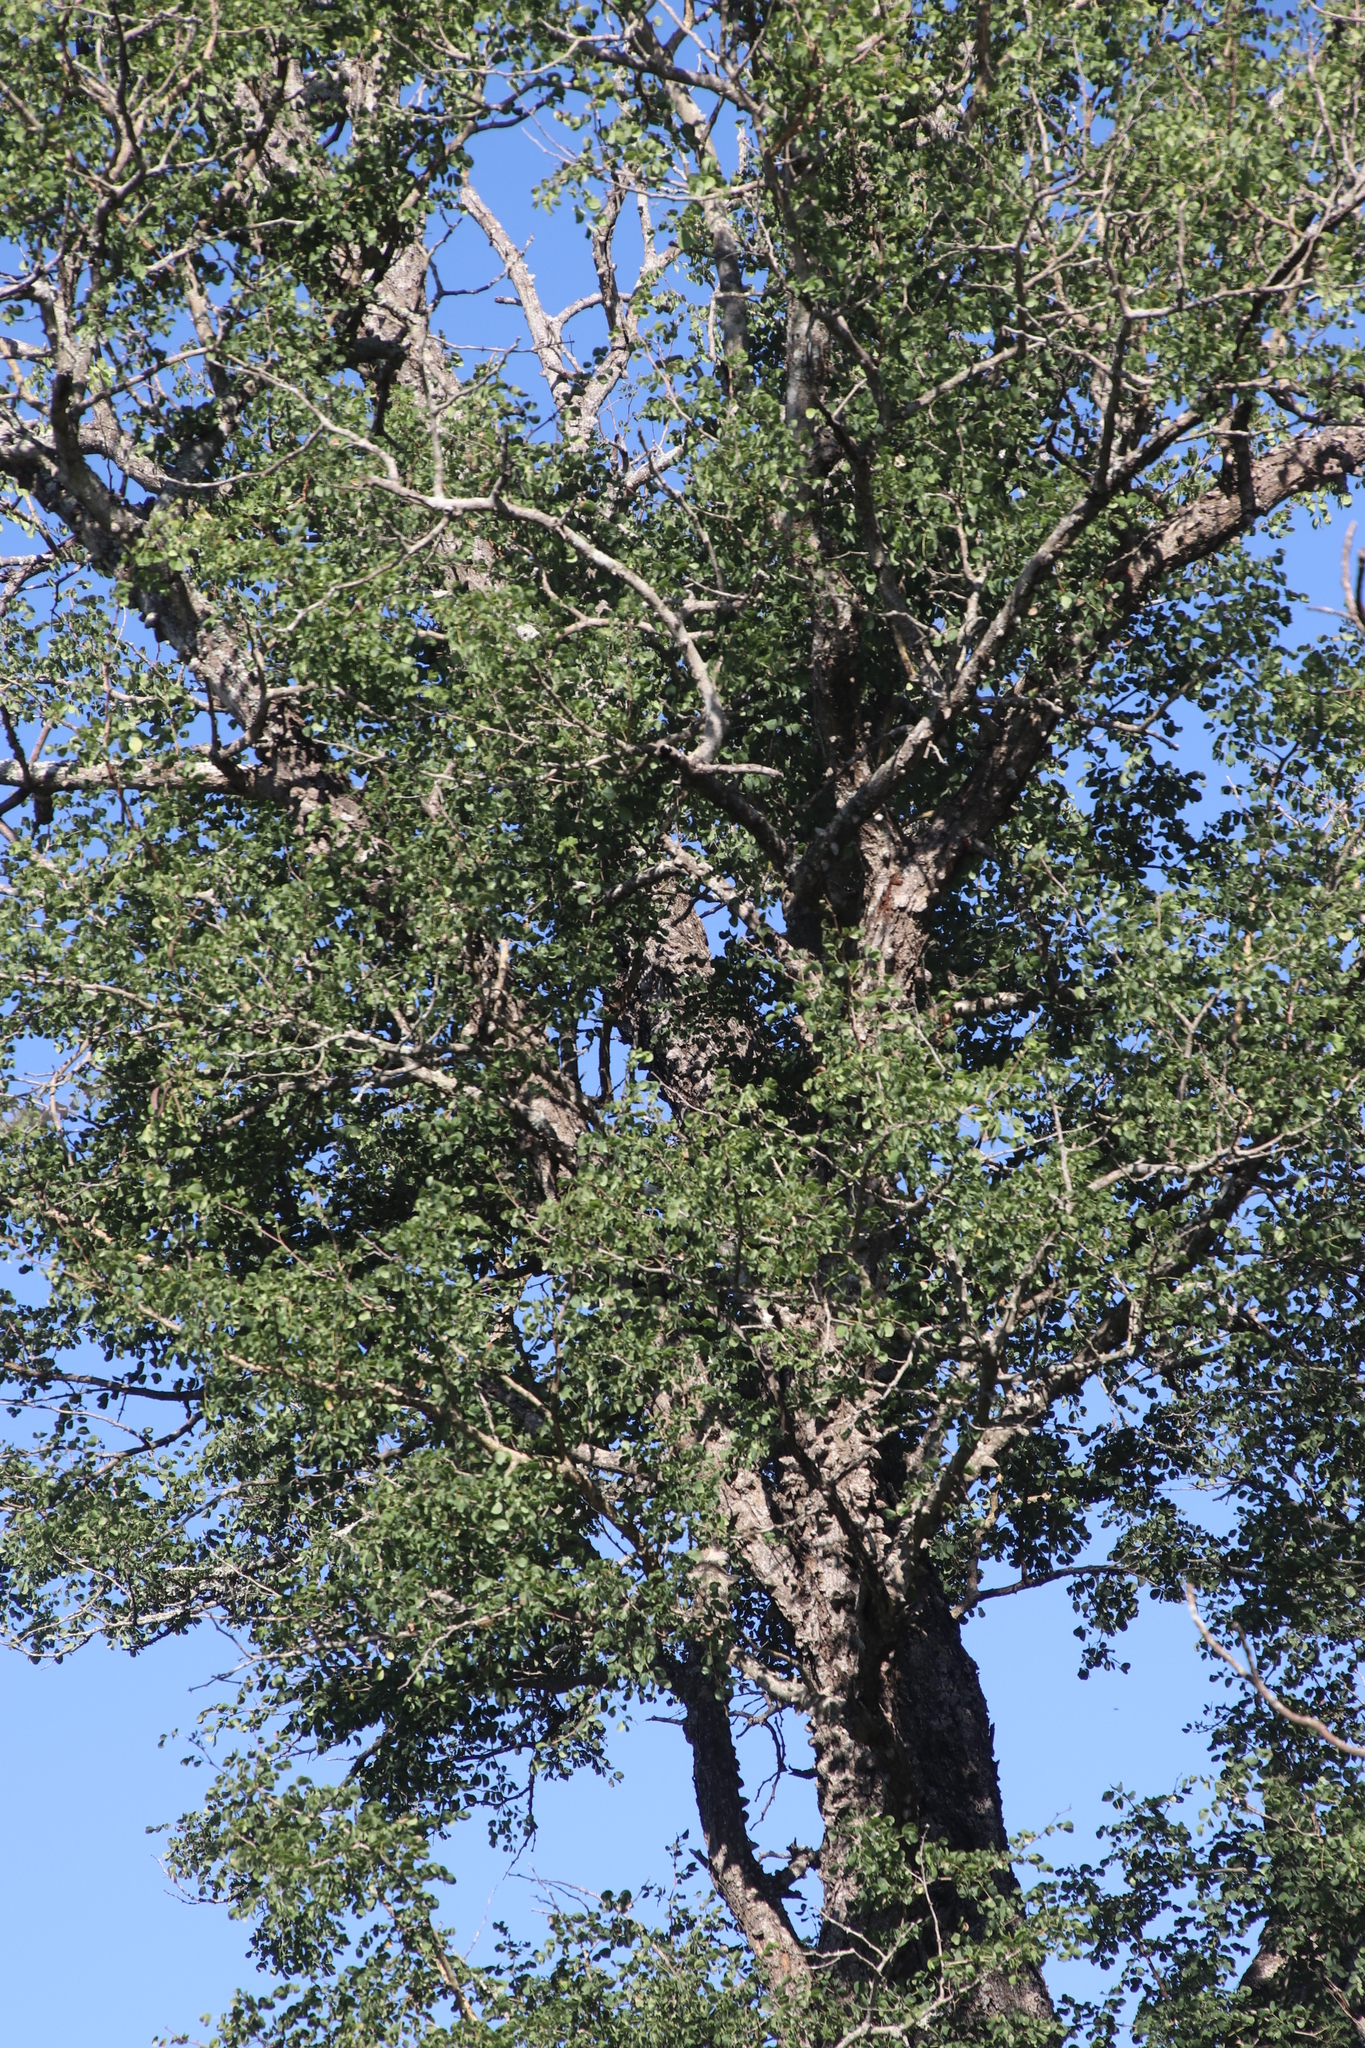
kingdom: Plantae
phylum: Tracheophyta
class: Magnoliopsida
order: Fabales
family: Fabaceae
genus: Senegalia
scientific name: Senegalia nigrescens
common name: Knobthorn
